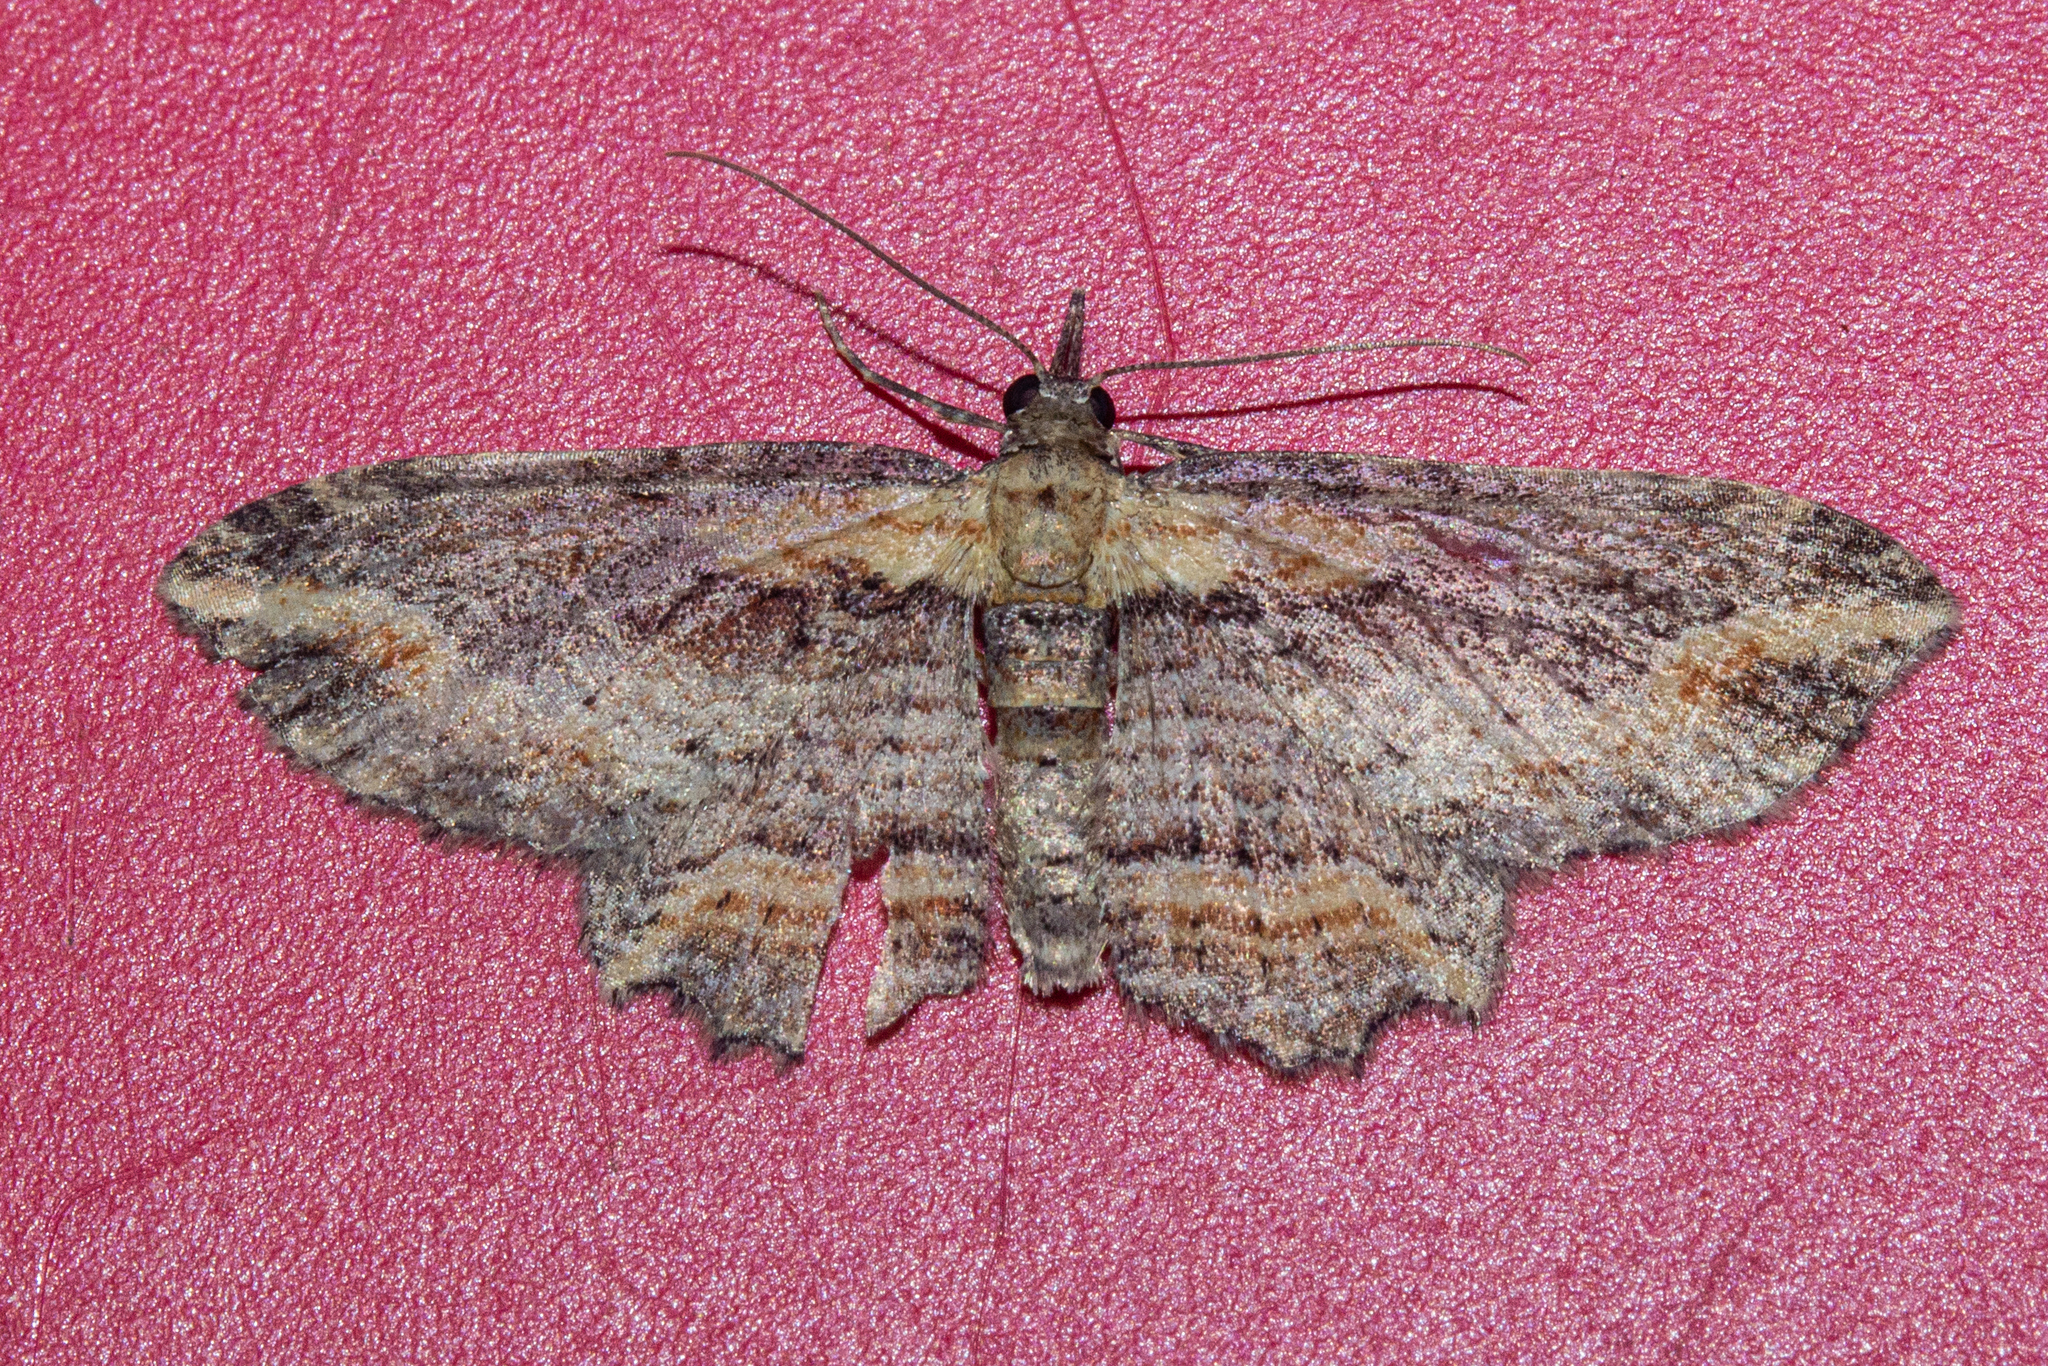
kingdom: Animalia
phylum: Arthropoda
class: Insecta
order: Lepidoptera
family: Geometridae
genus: Chloroclystis
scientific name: Chloroclystis filata
